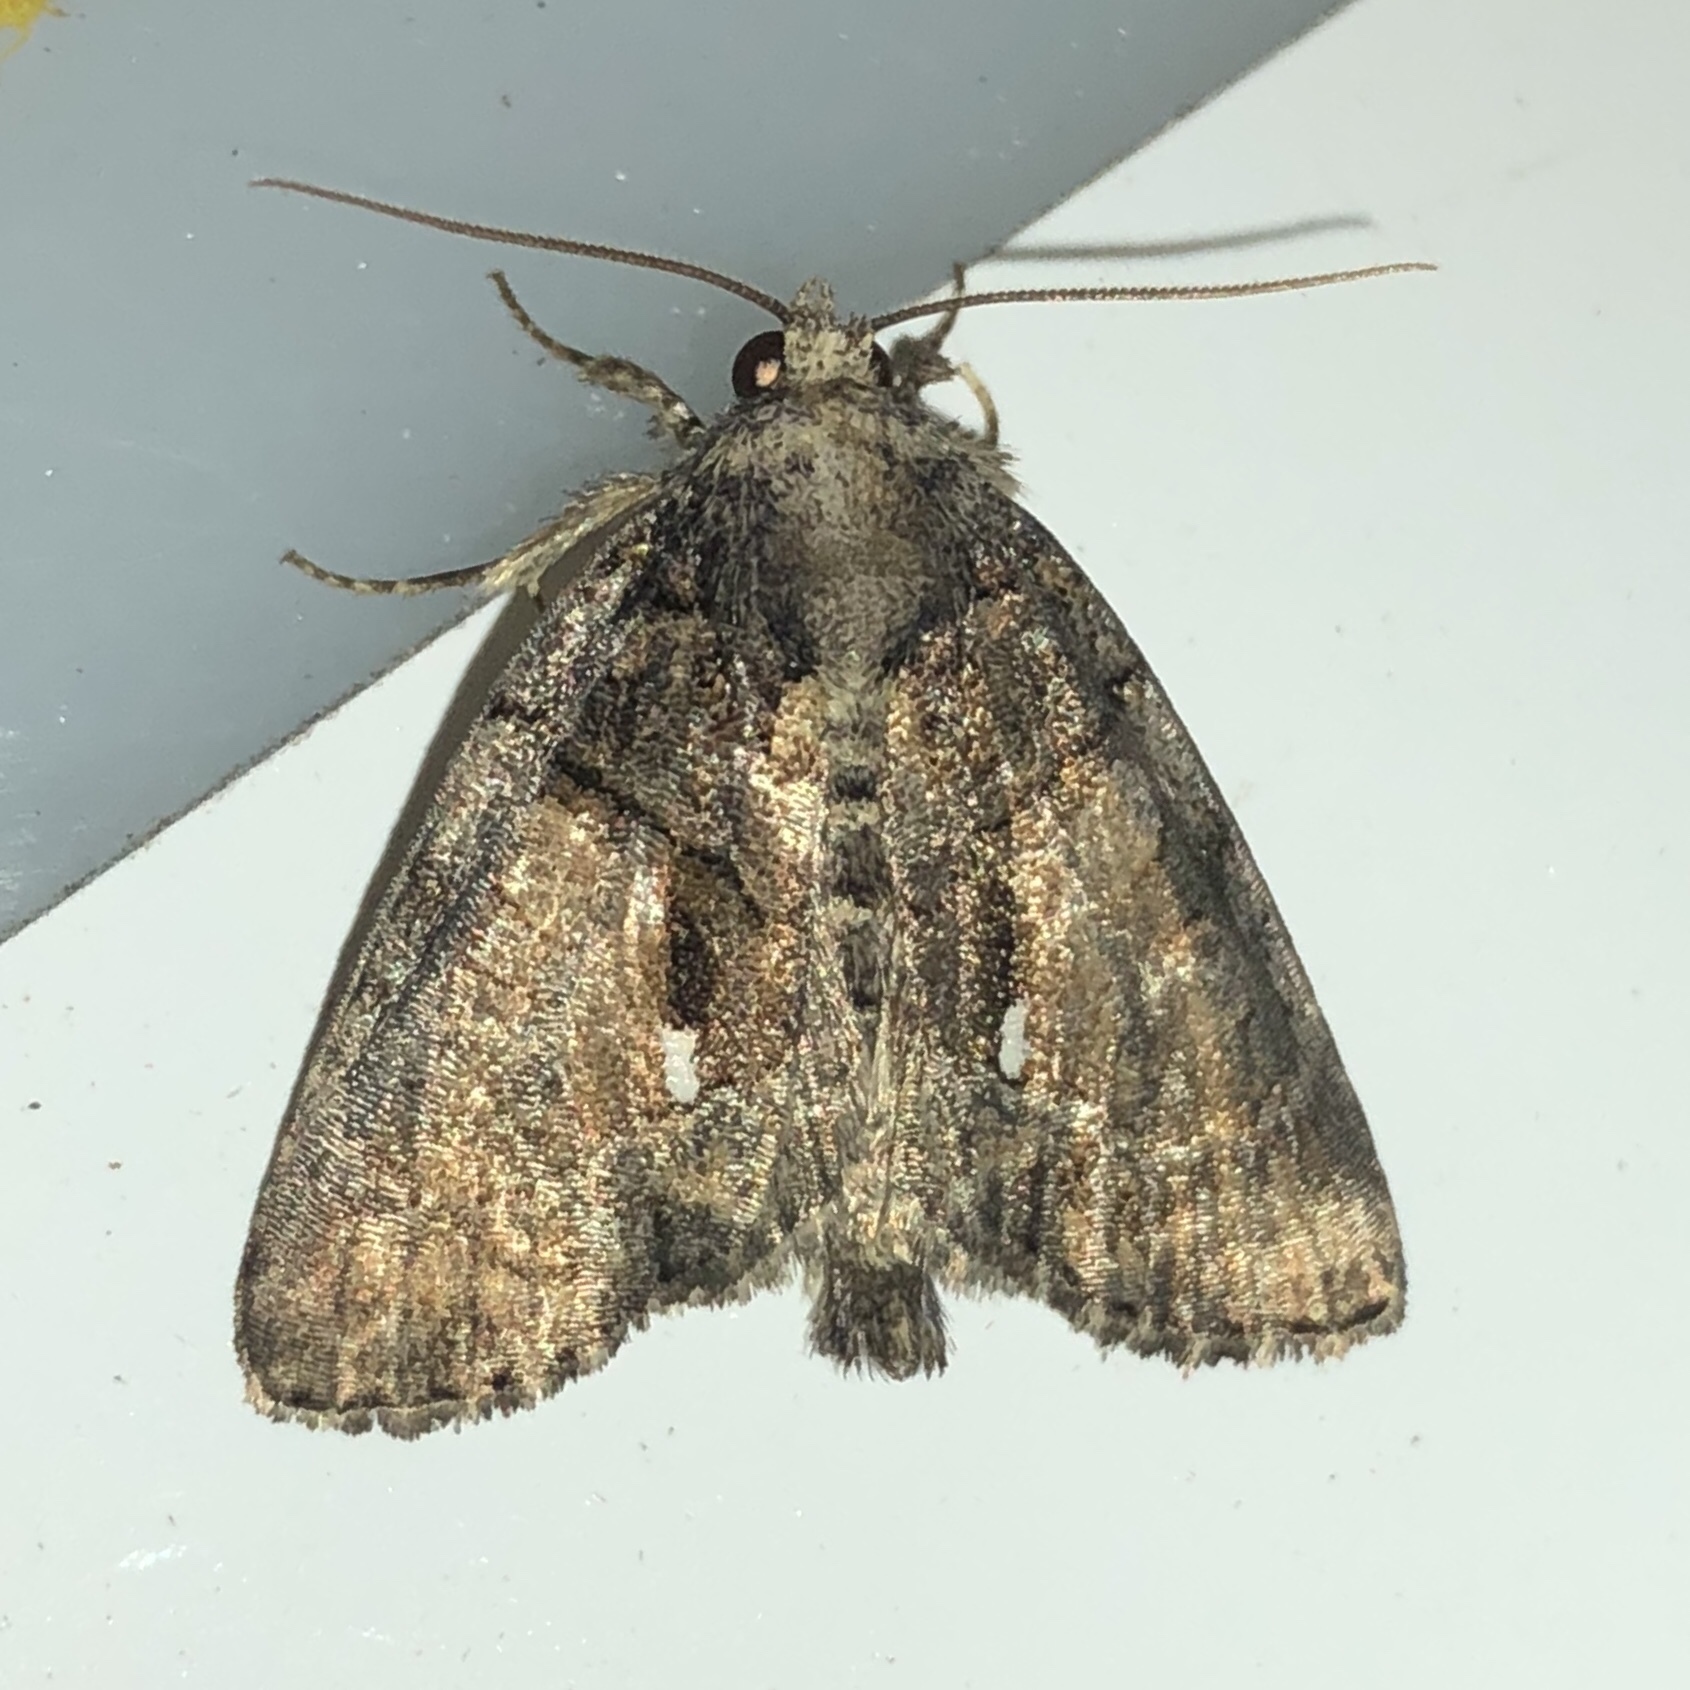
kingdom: Animalia
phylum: Arthropoda
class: Insecta
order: Lepidoptera
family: Noctuidae
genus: Chytonix
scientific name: Chytonix palliatricula
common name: Cloaked marvel
